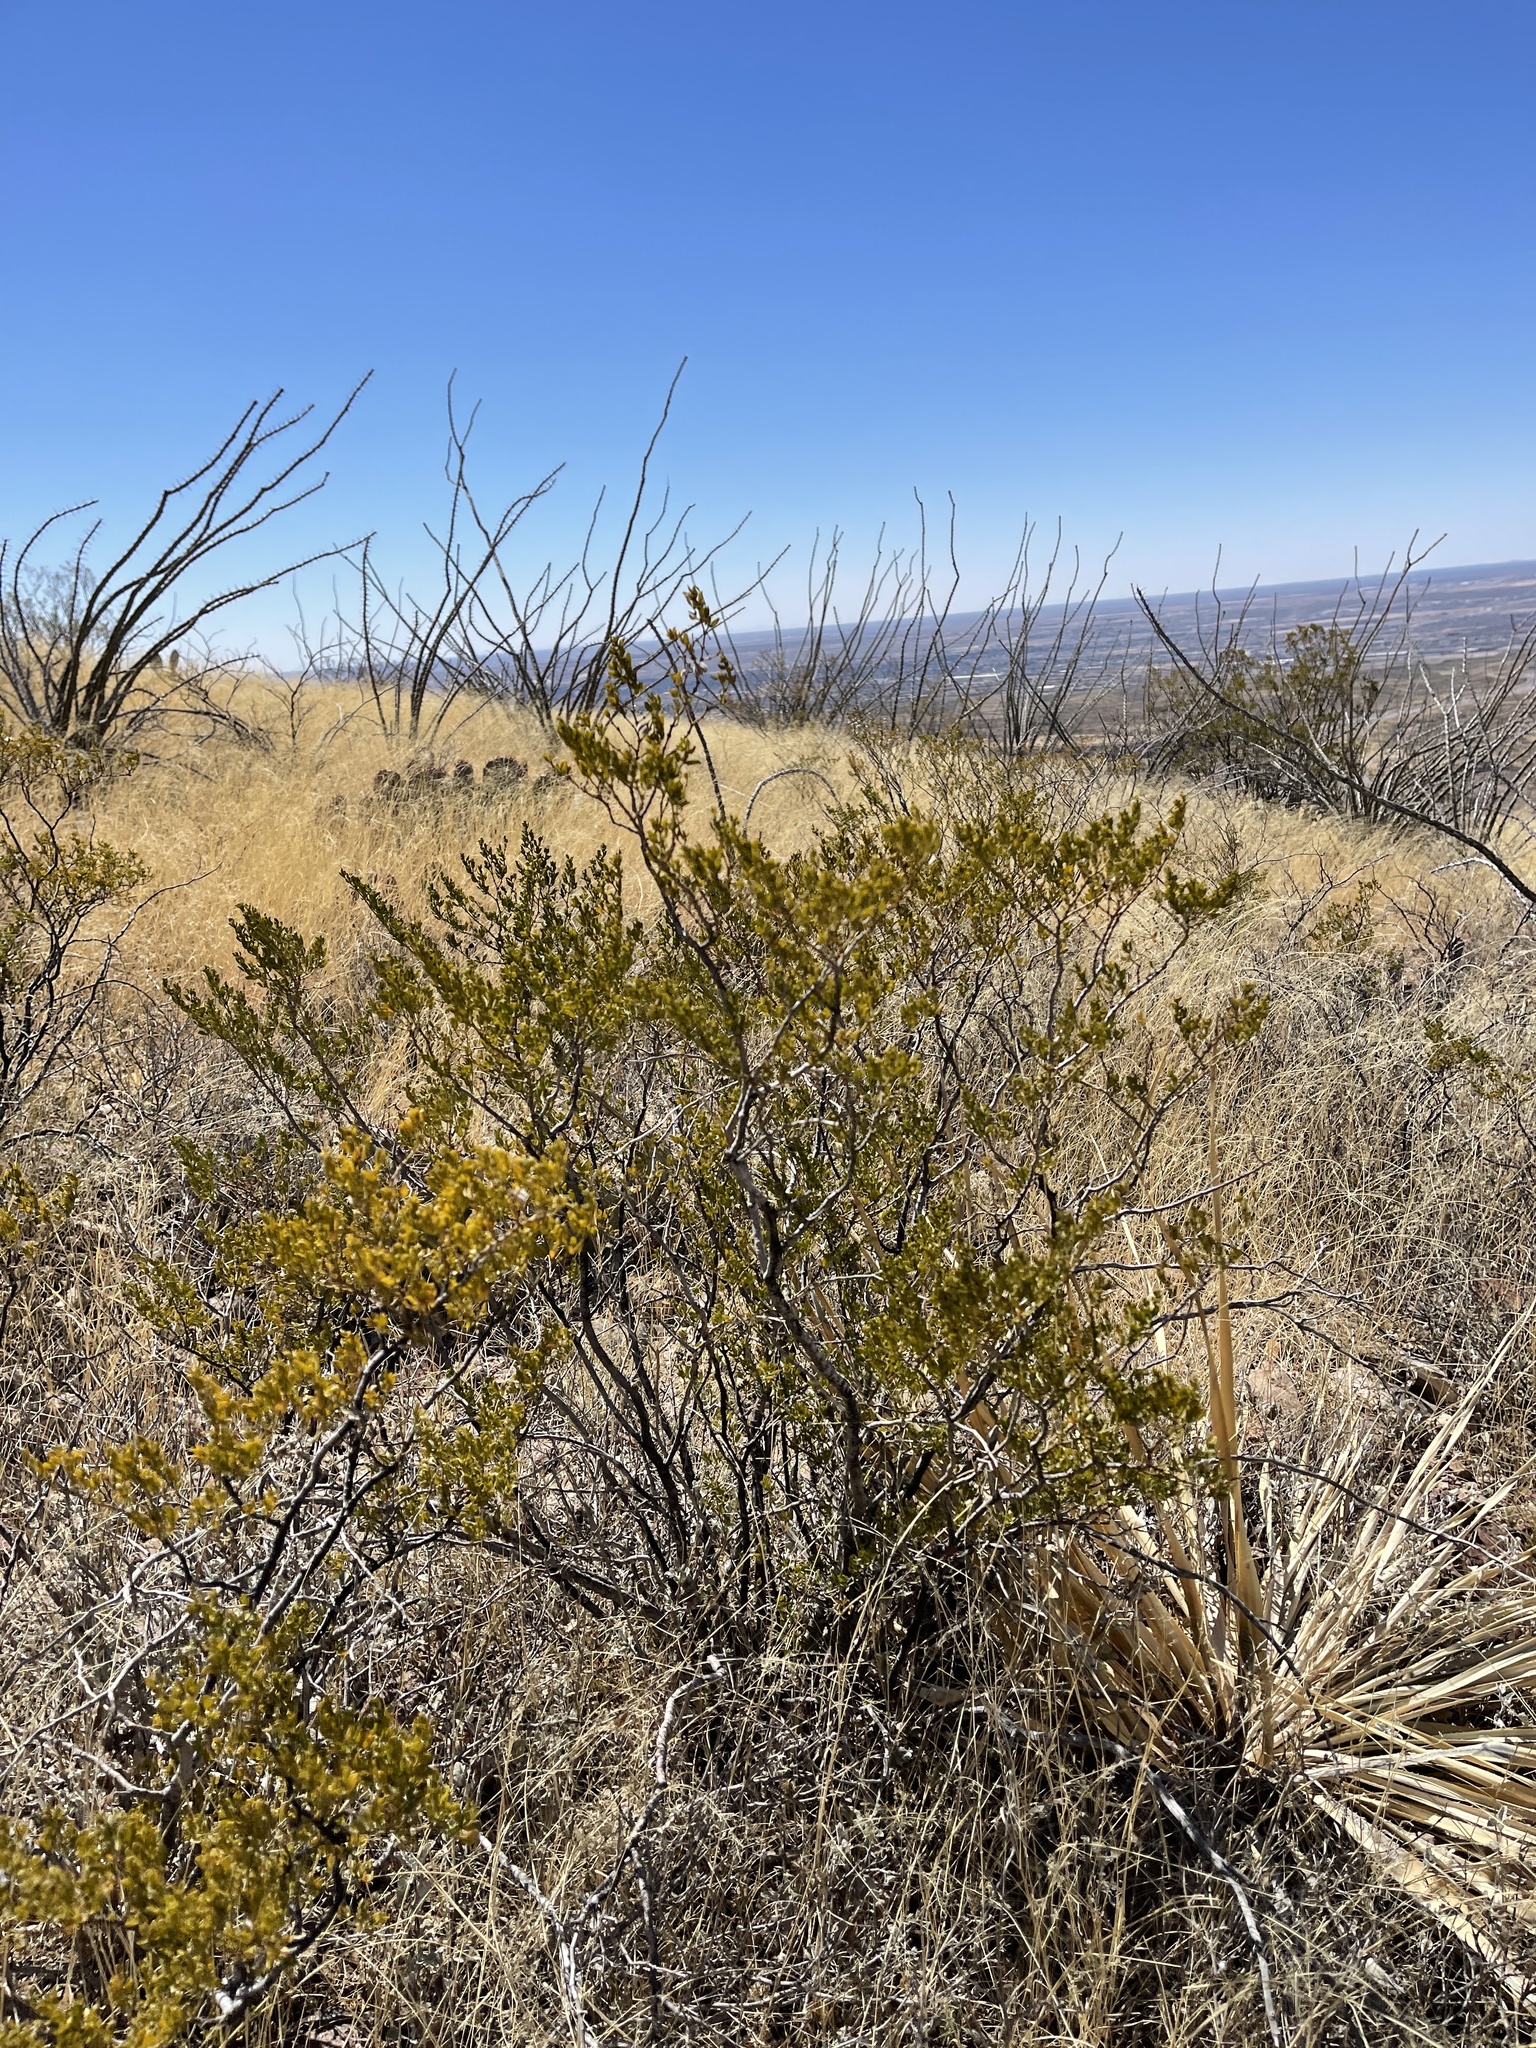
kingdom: Plantae
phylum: Tracheophyta
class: Magnoliopsida
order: Zygophyllales
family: Zygophyllaceae
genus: Larrea
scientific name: Larrea tridentata
